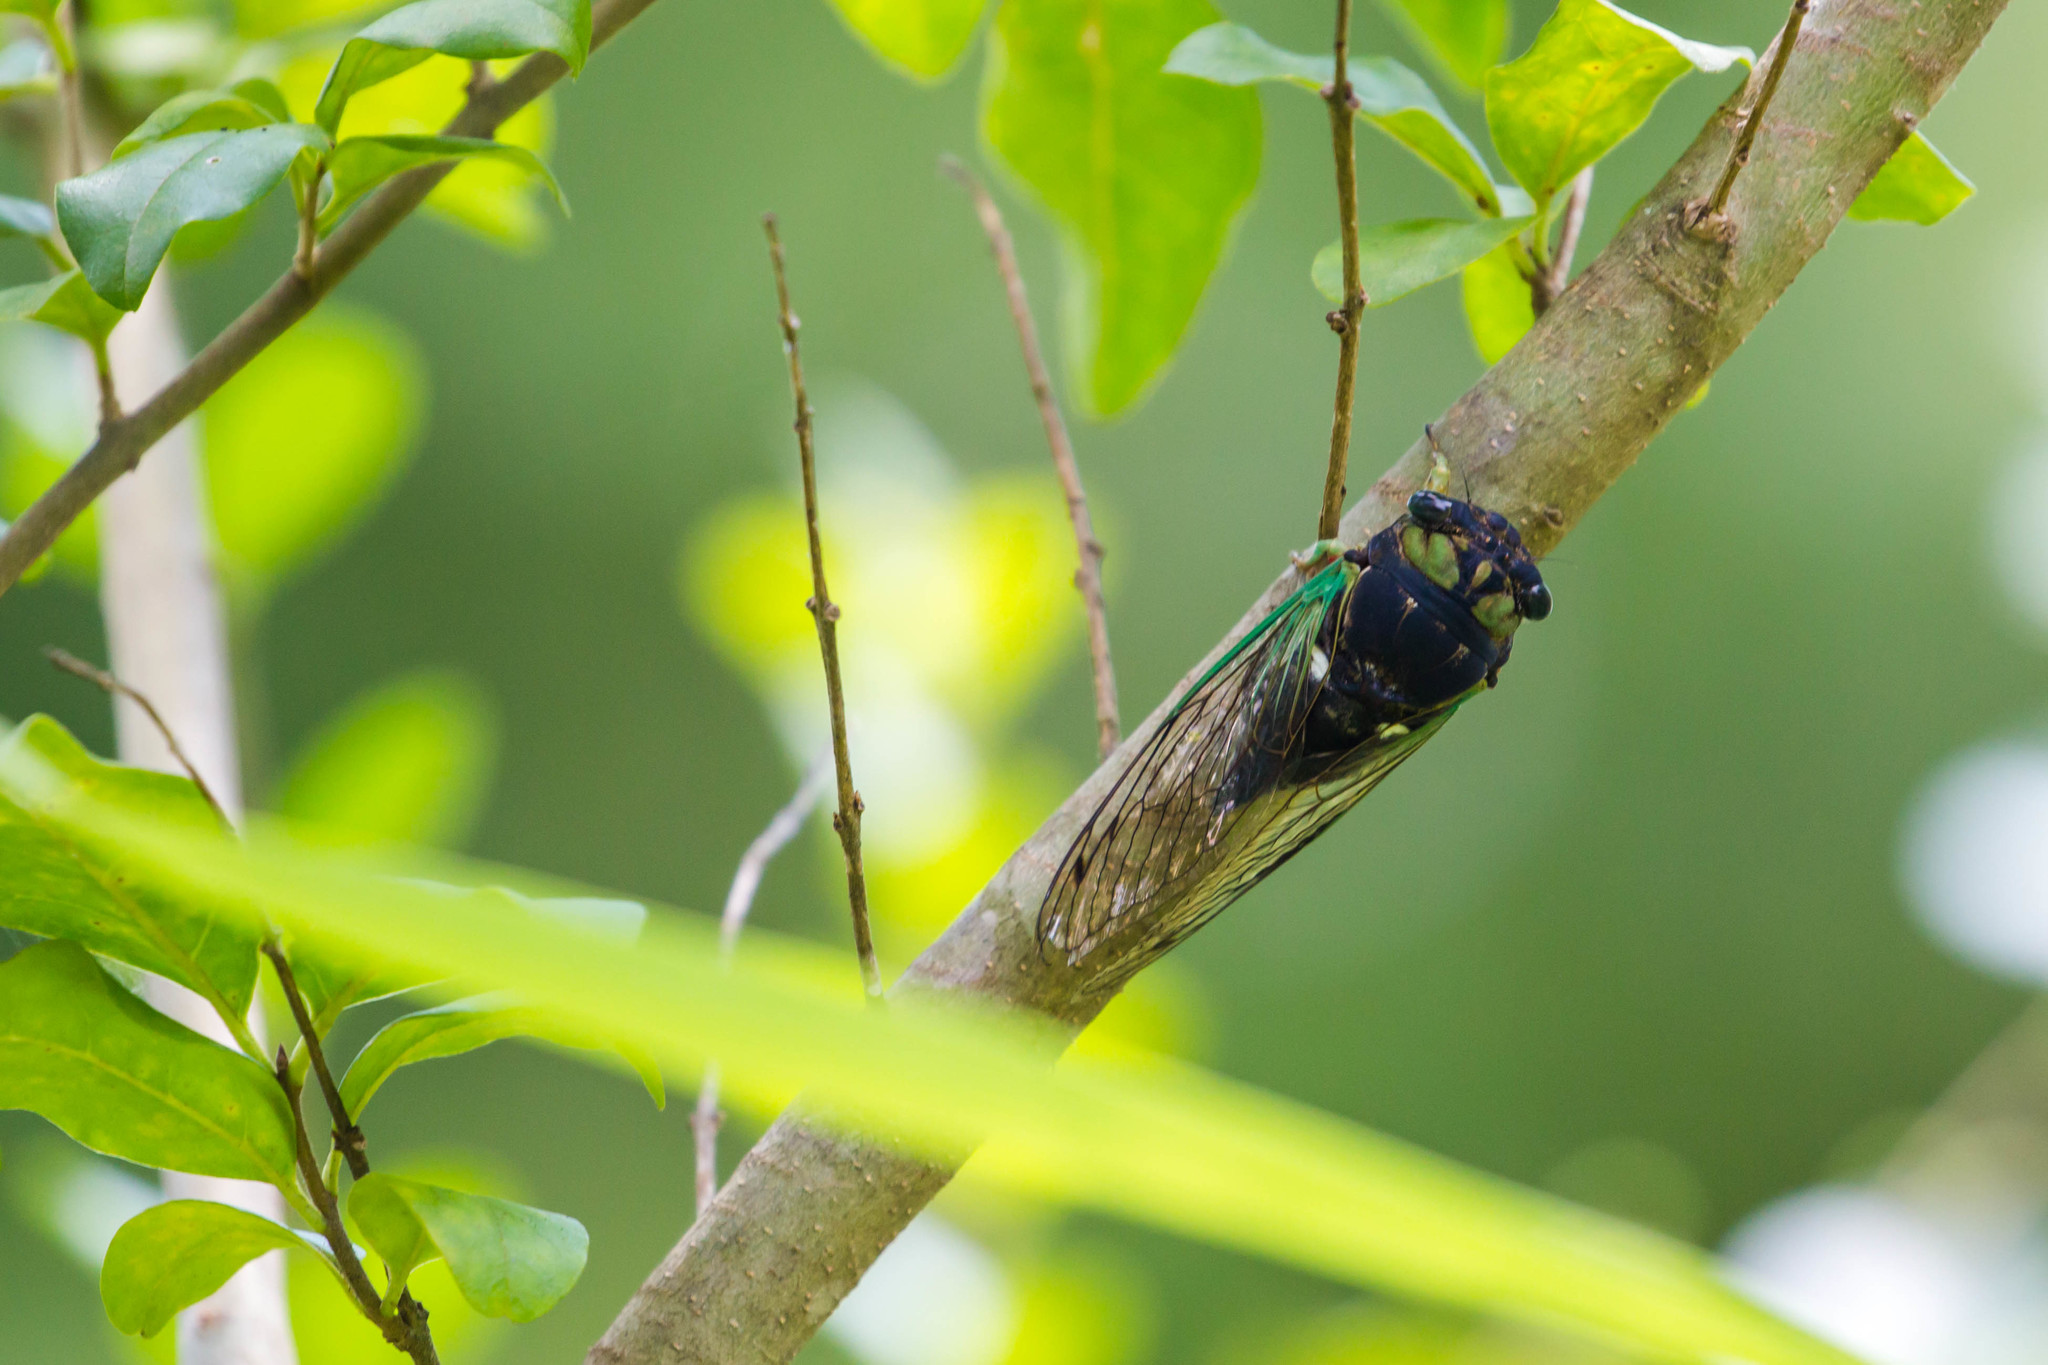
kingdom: Animalia
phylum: Arthropoda
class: Insecta
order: Hemiptera
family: Cicadidae
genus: Neotibicen
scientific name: Neotibicen tibicen
